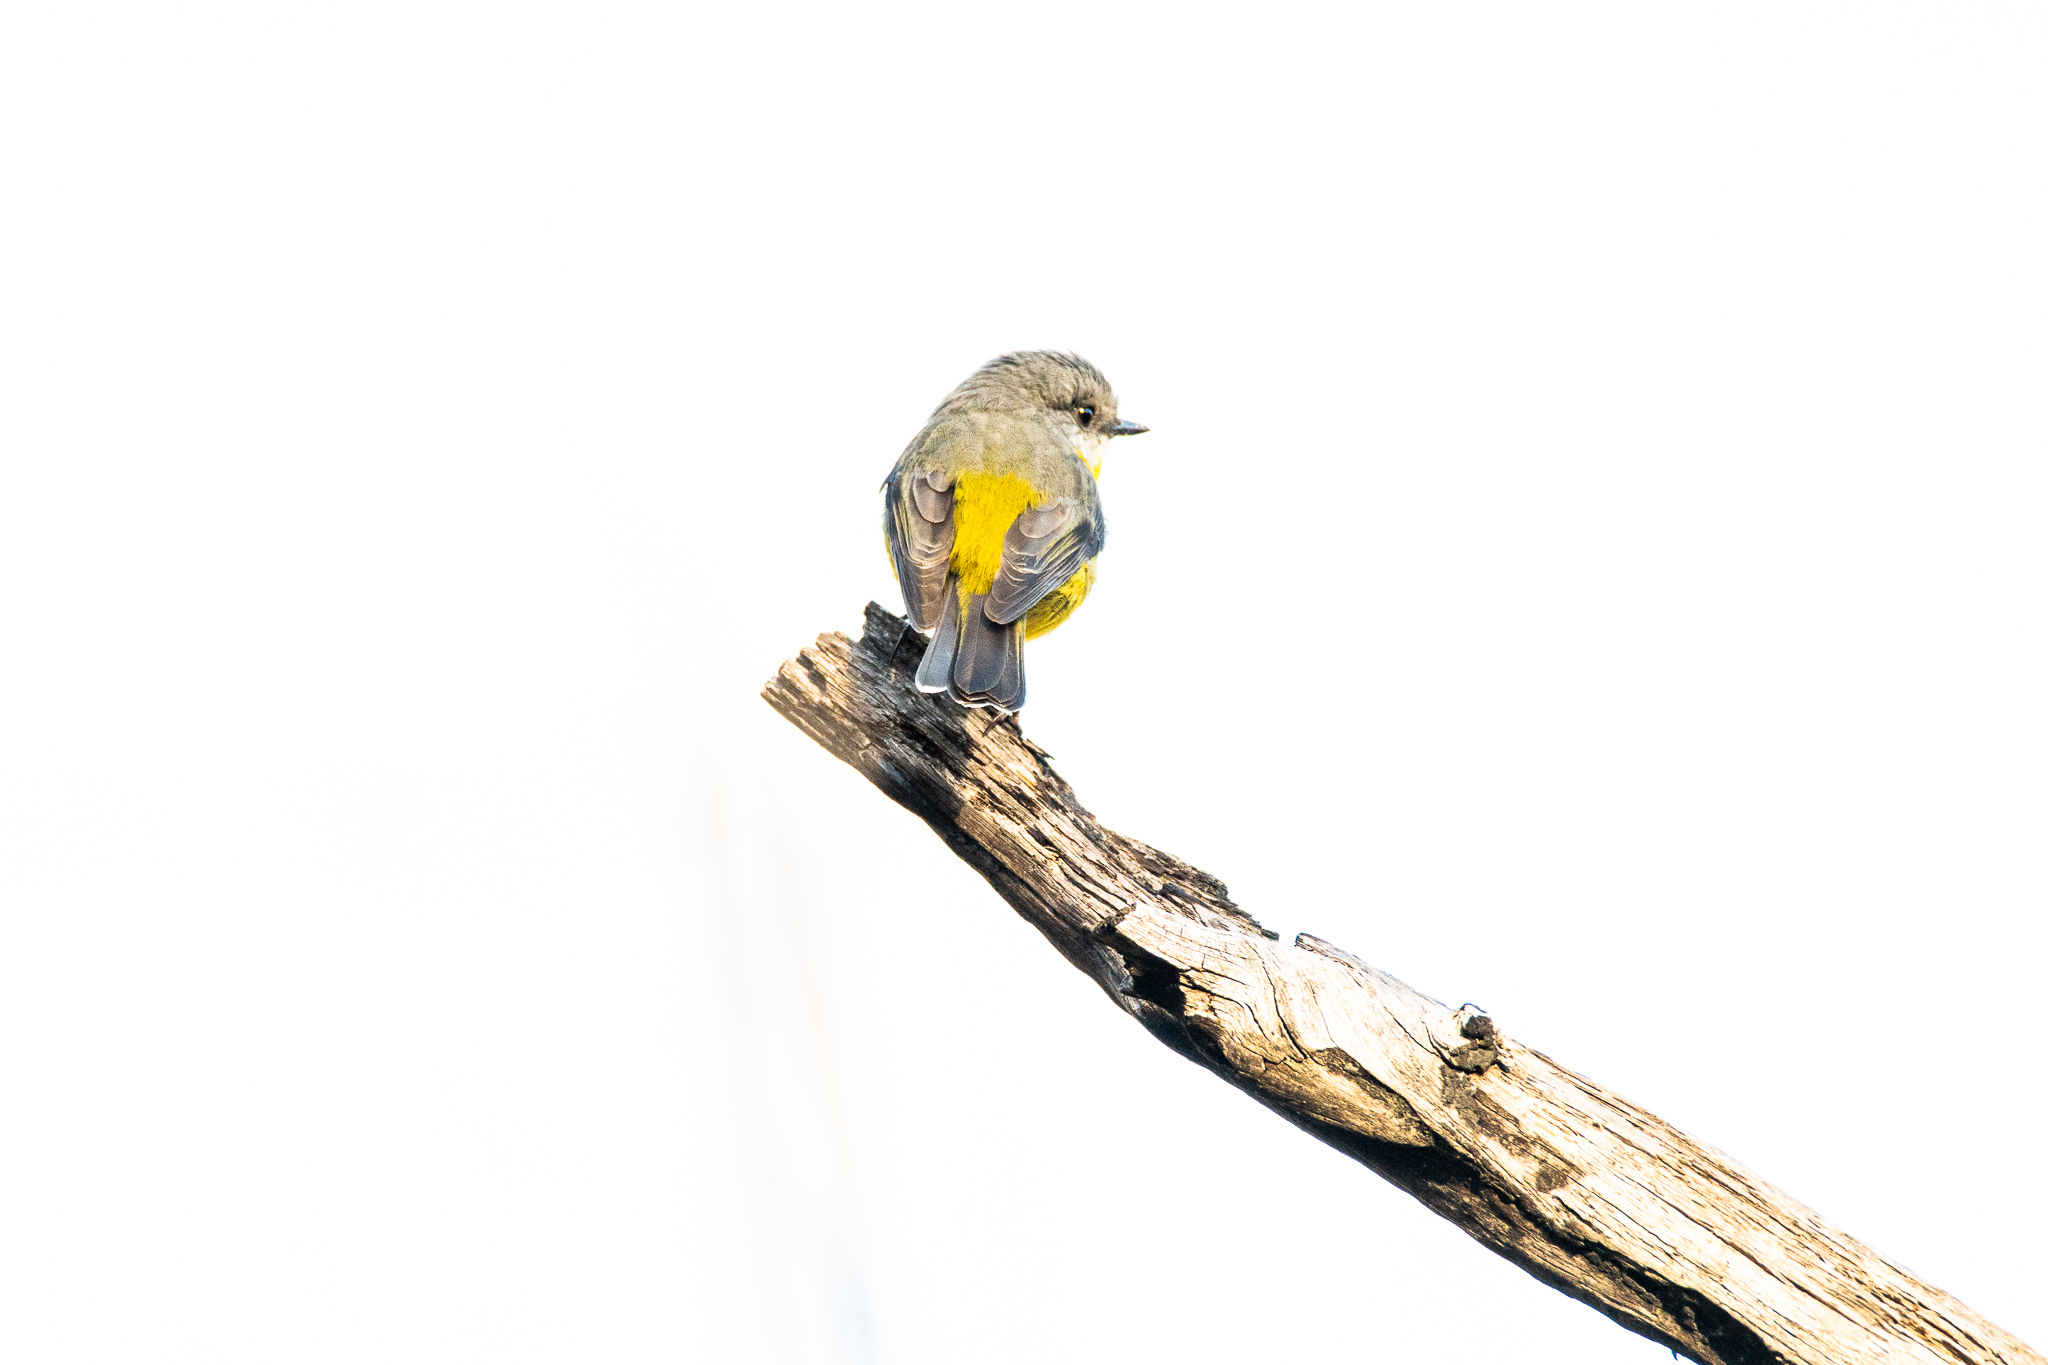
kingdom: Animalia
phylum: Chordata
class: Aves
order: Passeriformes
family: Petroicidae
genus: Eopsaltria
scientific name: Eopsaltria australis
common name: Eastern yellow robin
